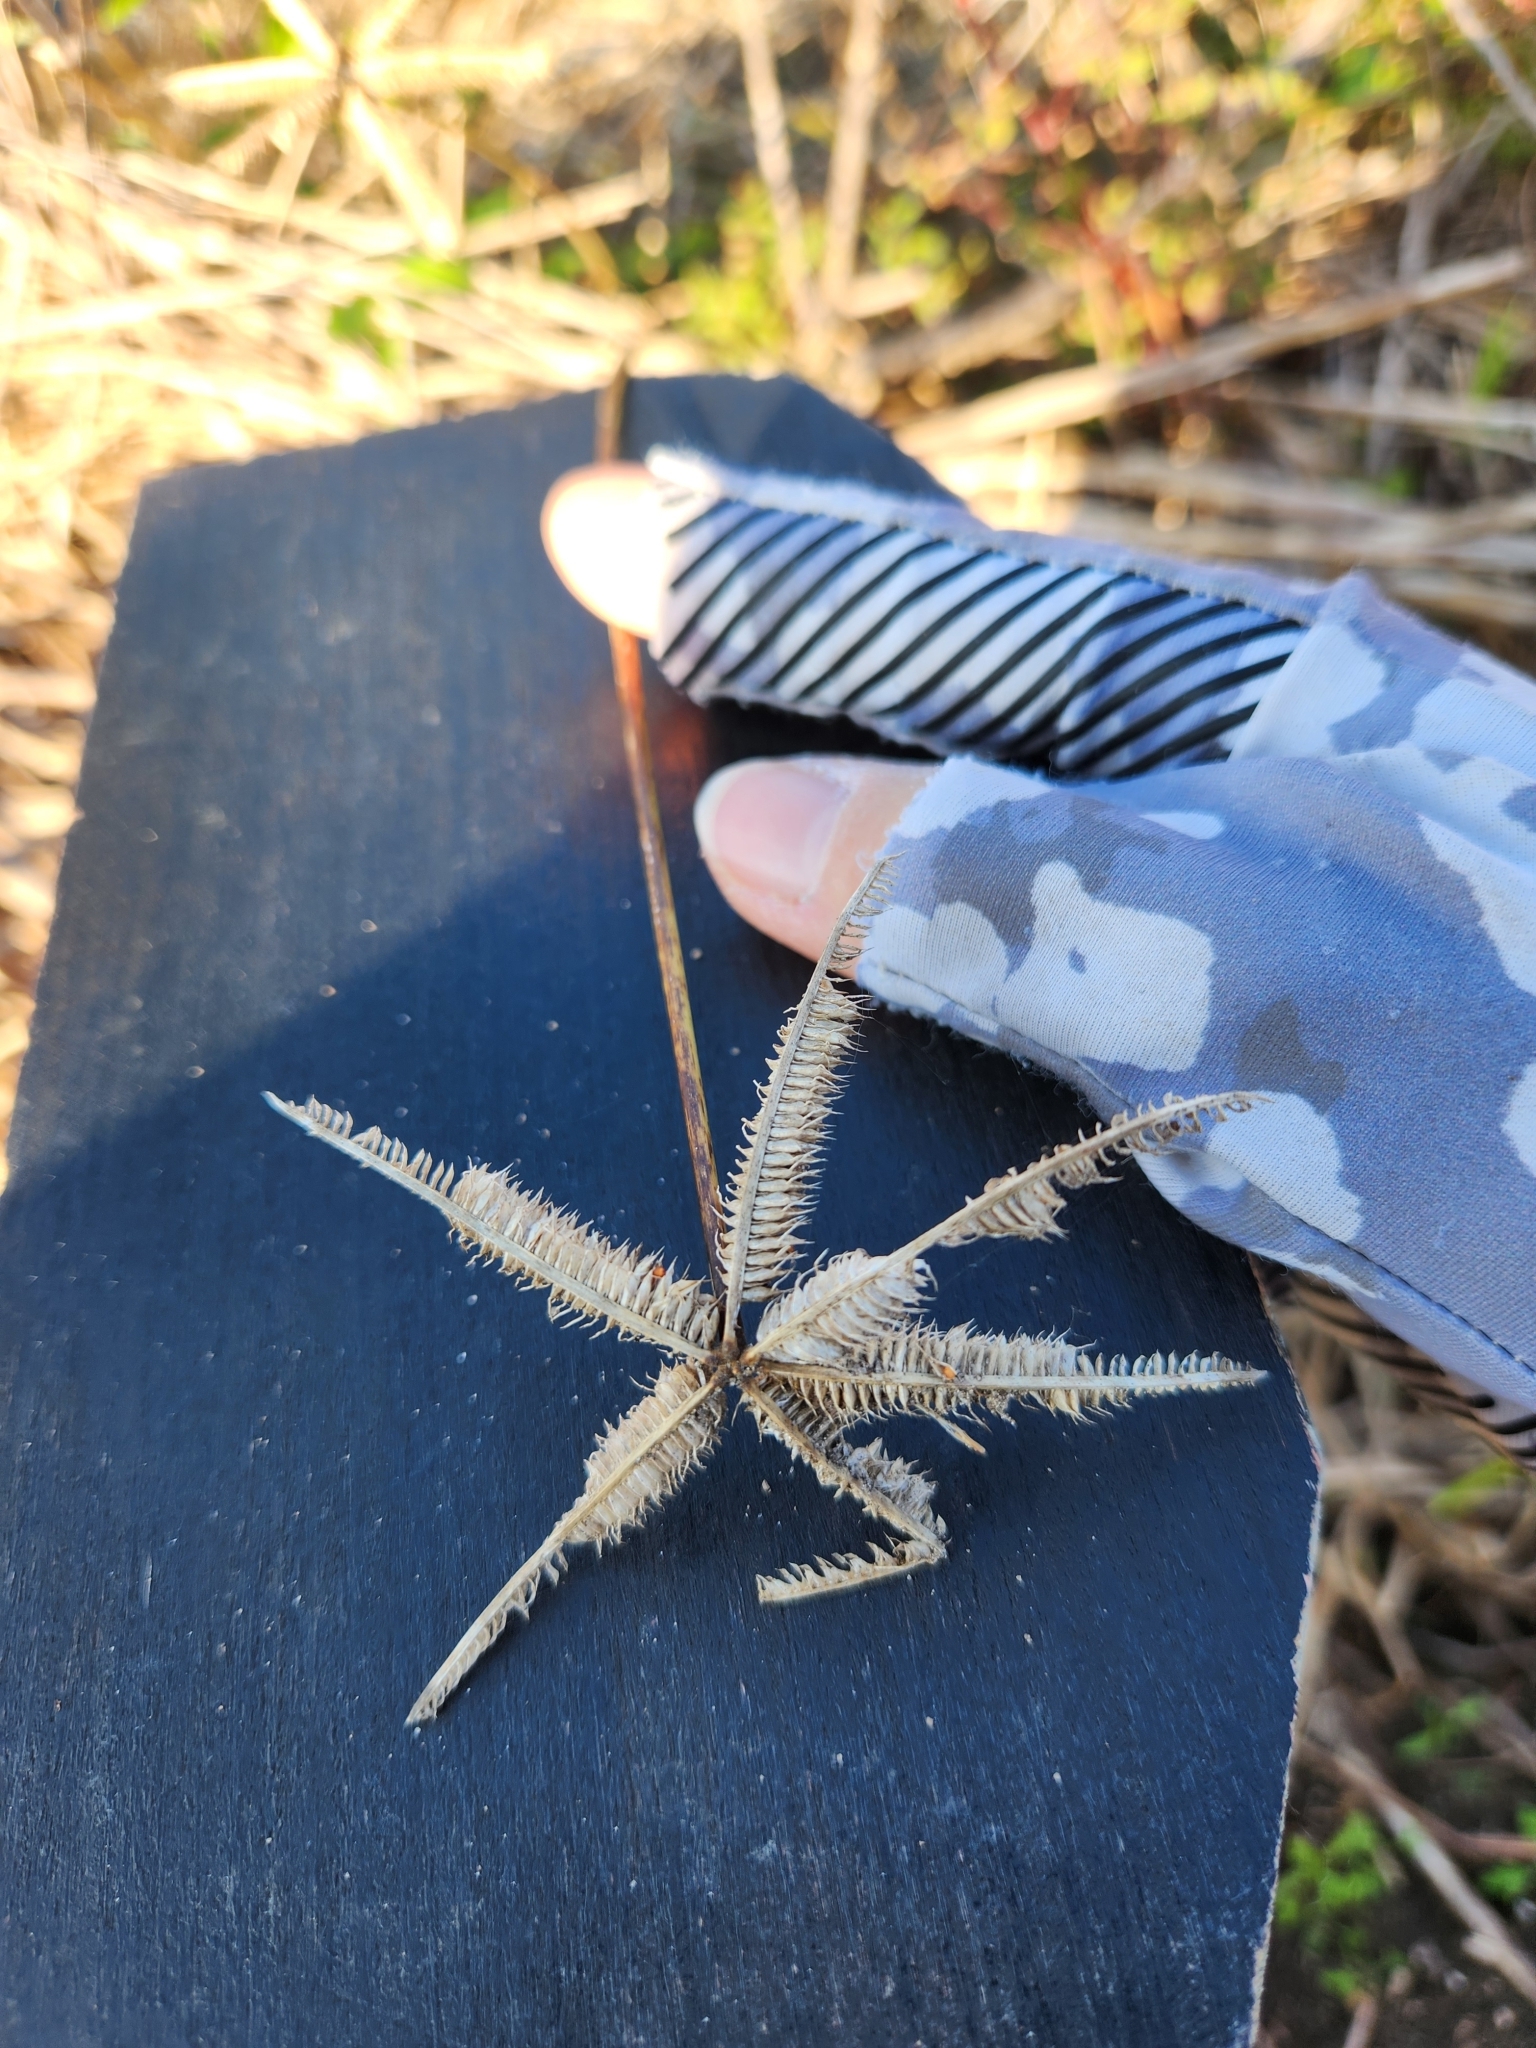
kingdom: Plantae
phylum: Tracheophyta
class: Liliopsida
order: Poales
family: Poaceae
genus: Dactyloctenium
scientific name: Dactyloctenium aegyptium
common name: Egyptian grass
